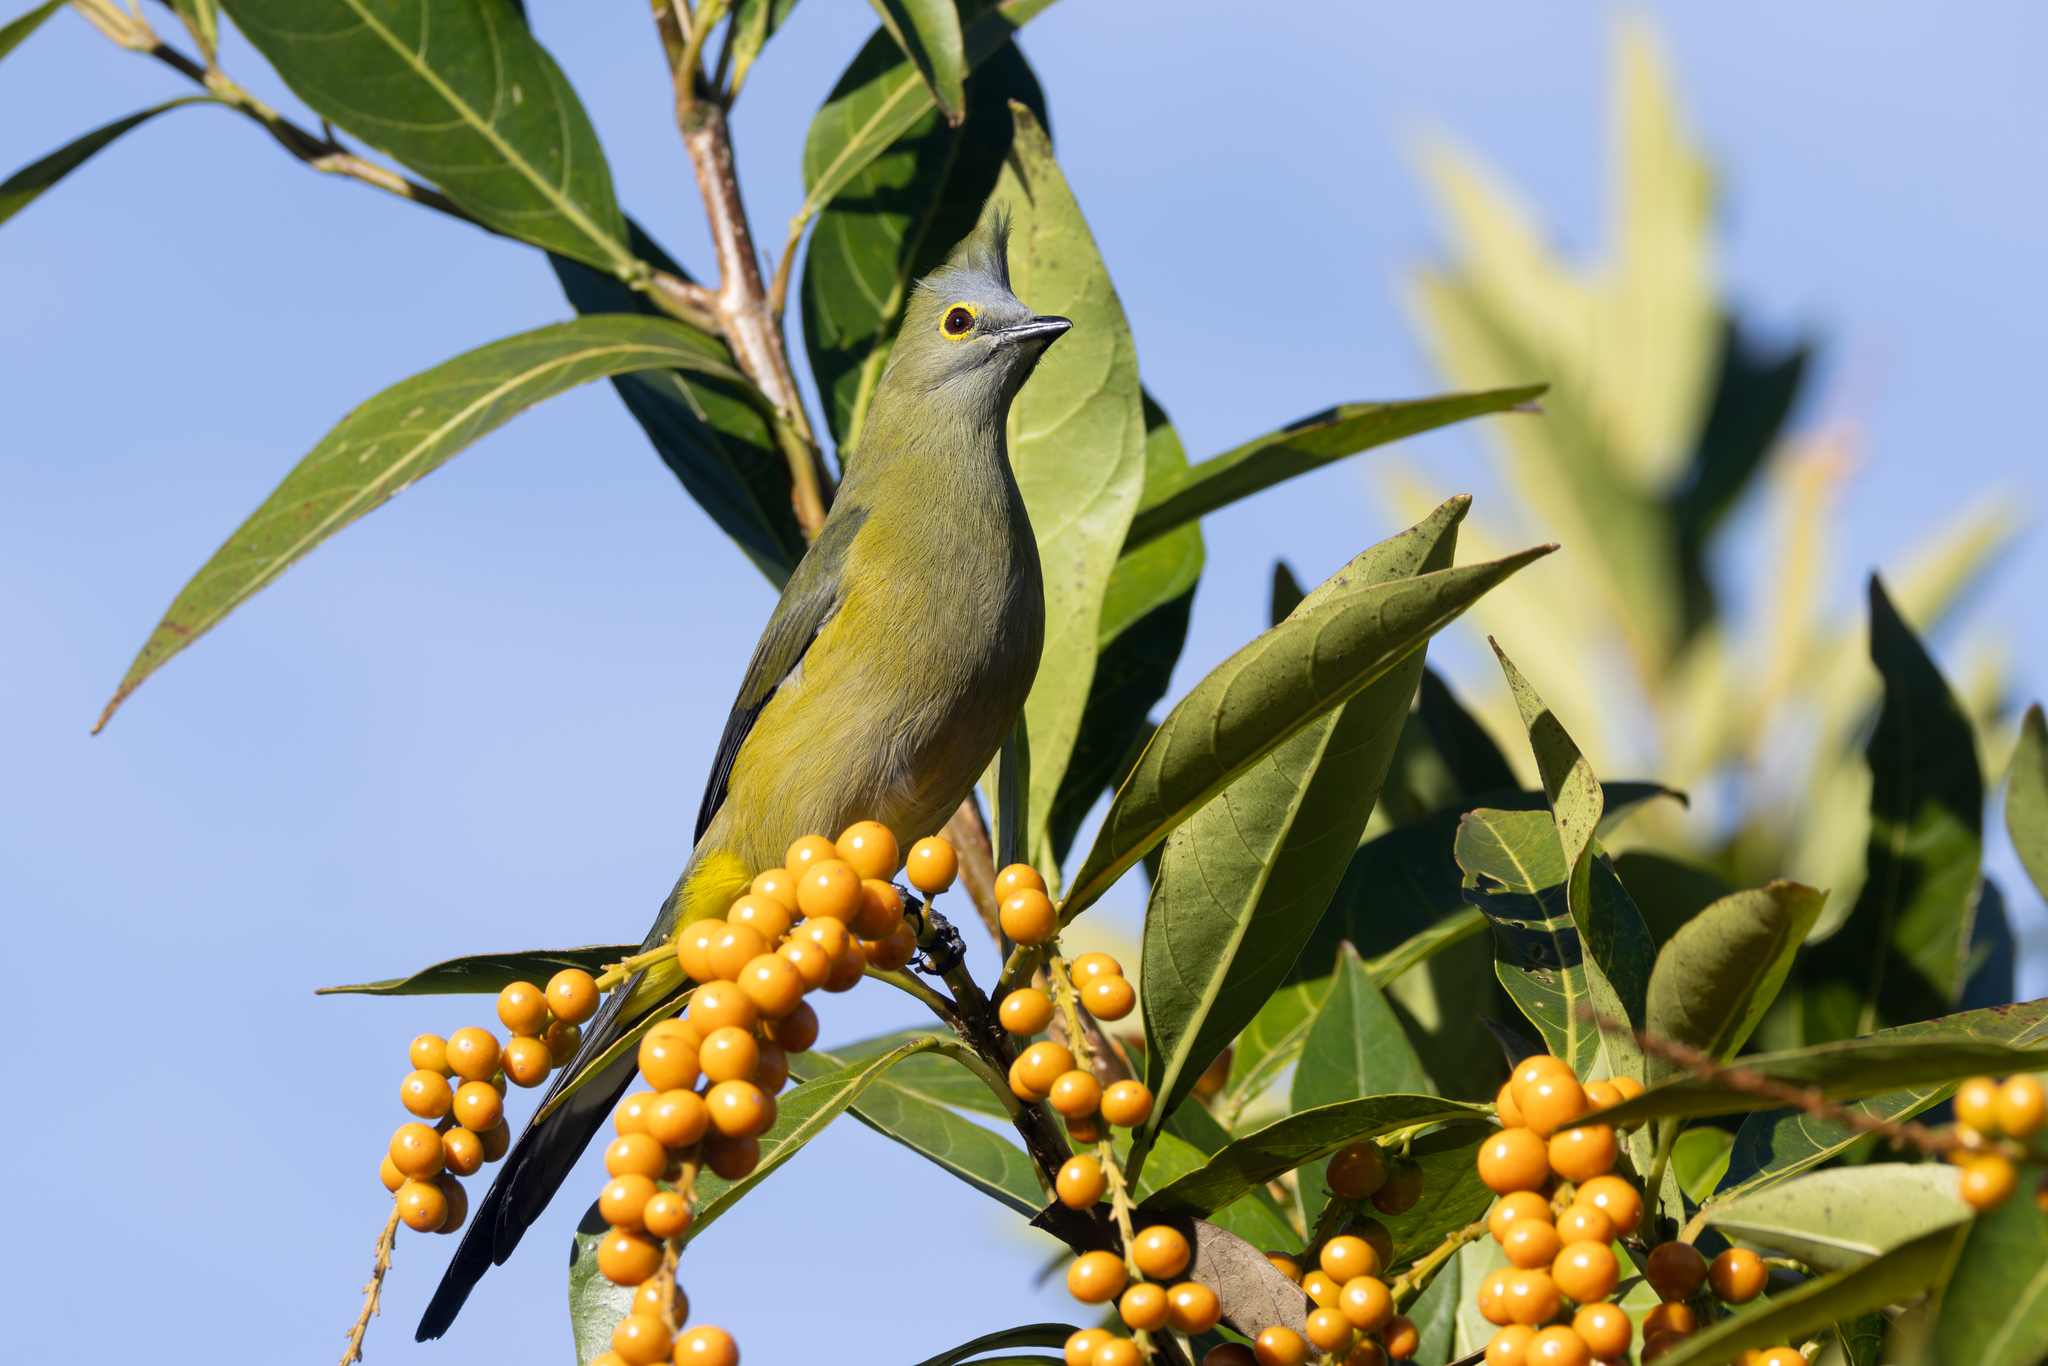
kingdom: Animalia
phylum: Chordata
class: Aves
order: Passeriformes
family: Ptilogonatidae
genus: Ptilogonys
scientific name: Ptilogonys caudatus
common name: Long-tailed silky-flycatcher
